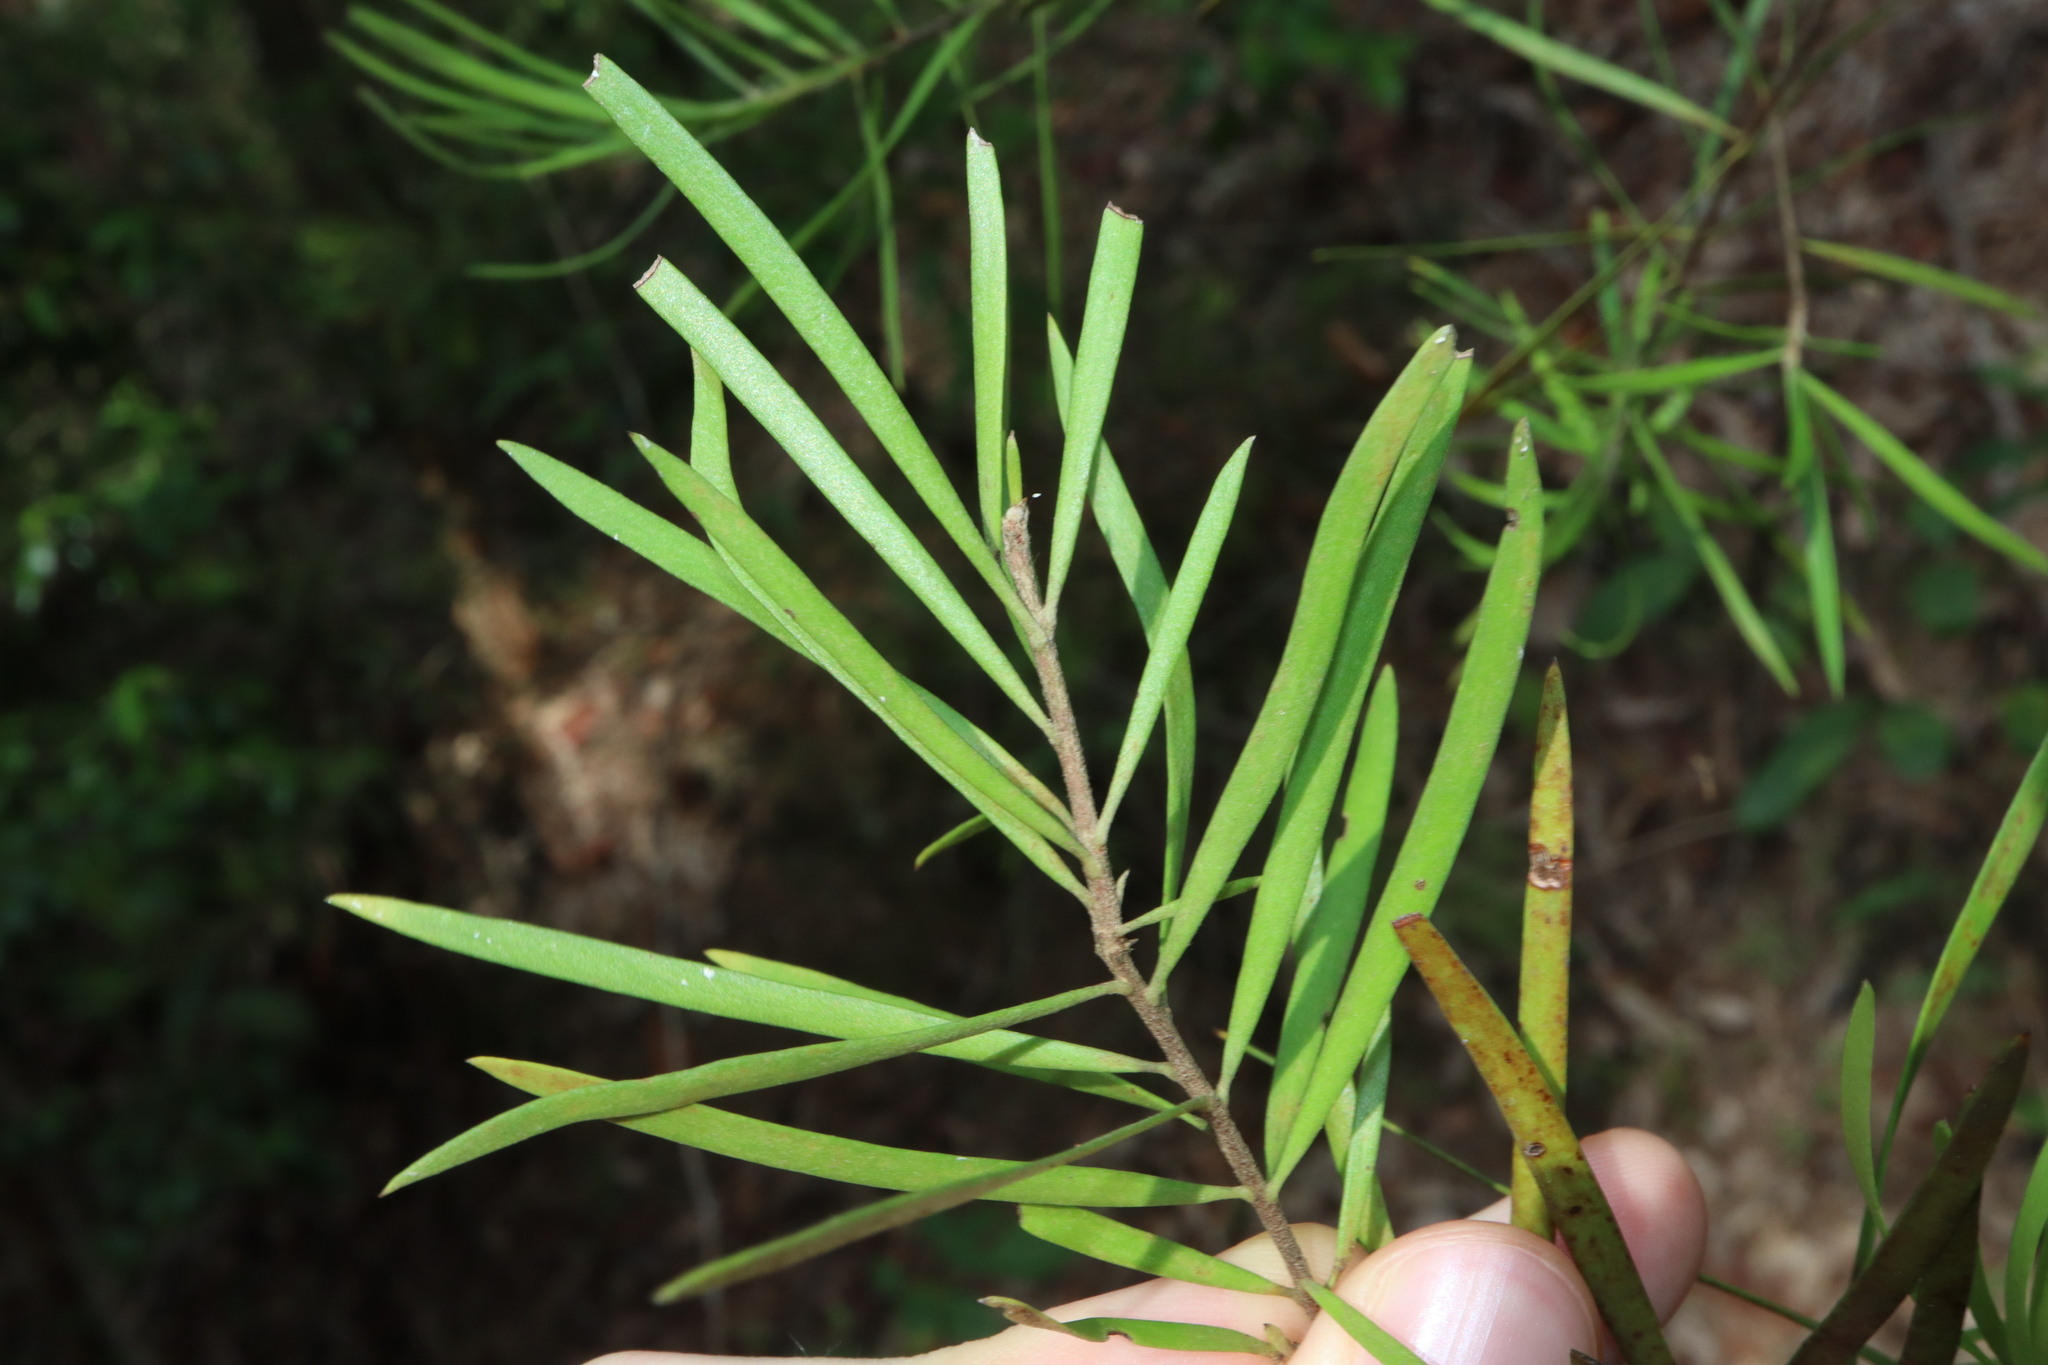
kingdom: Plantae
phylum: Tracheophyta
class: Magnoliopsida
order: Proteales
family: Proteaceae
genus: Persoonia
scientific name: Persoonia linearis
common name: Narrow-leaf geebung
